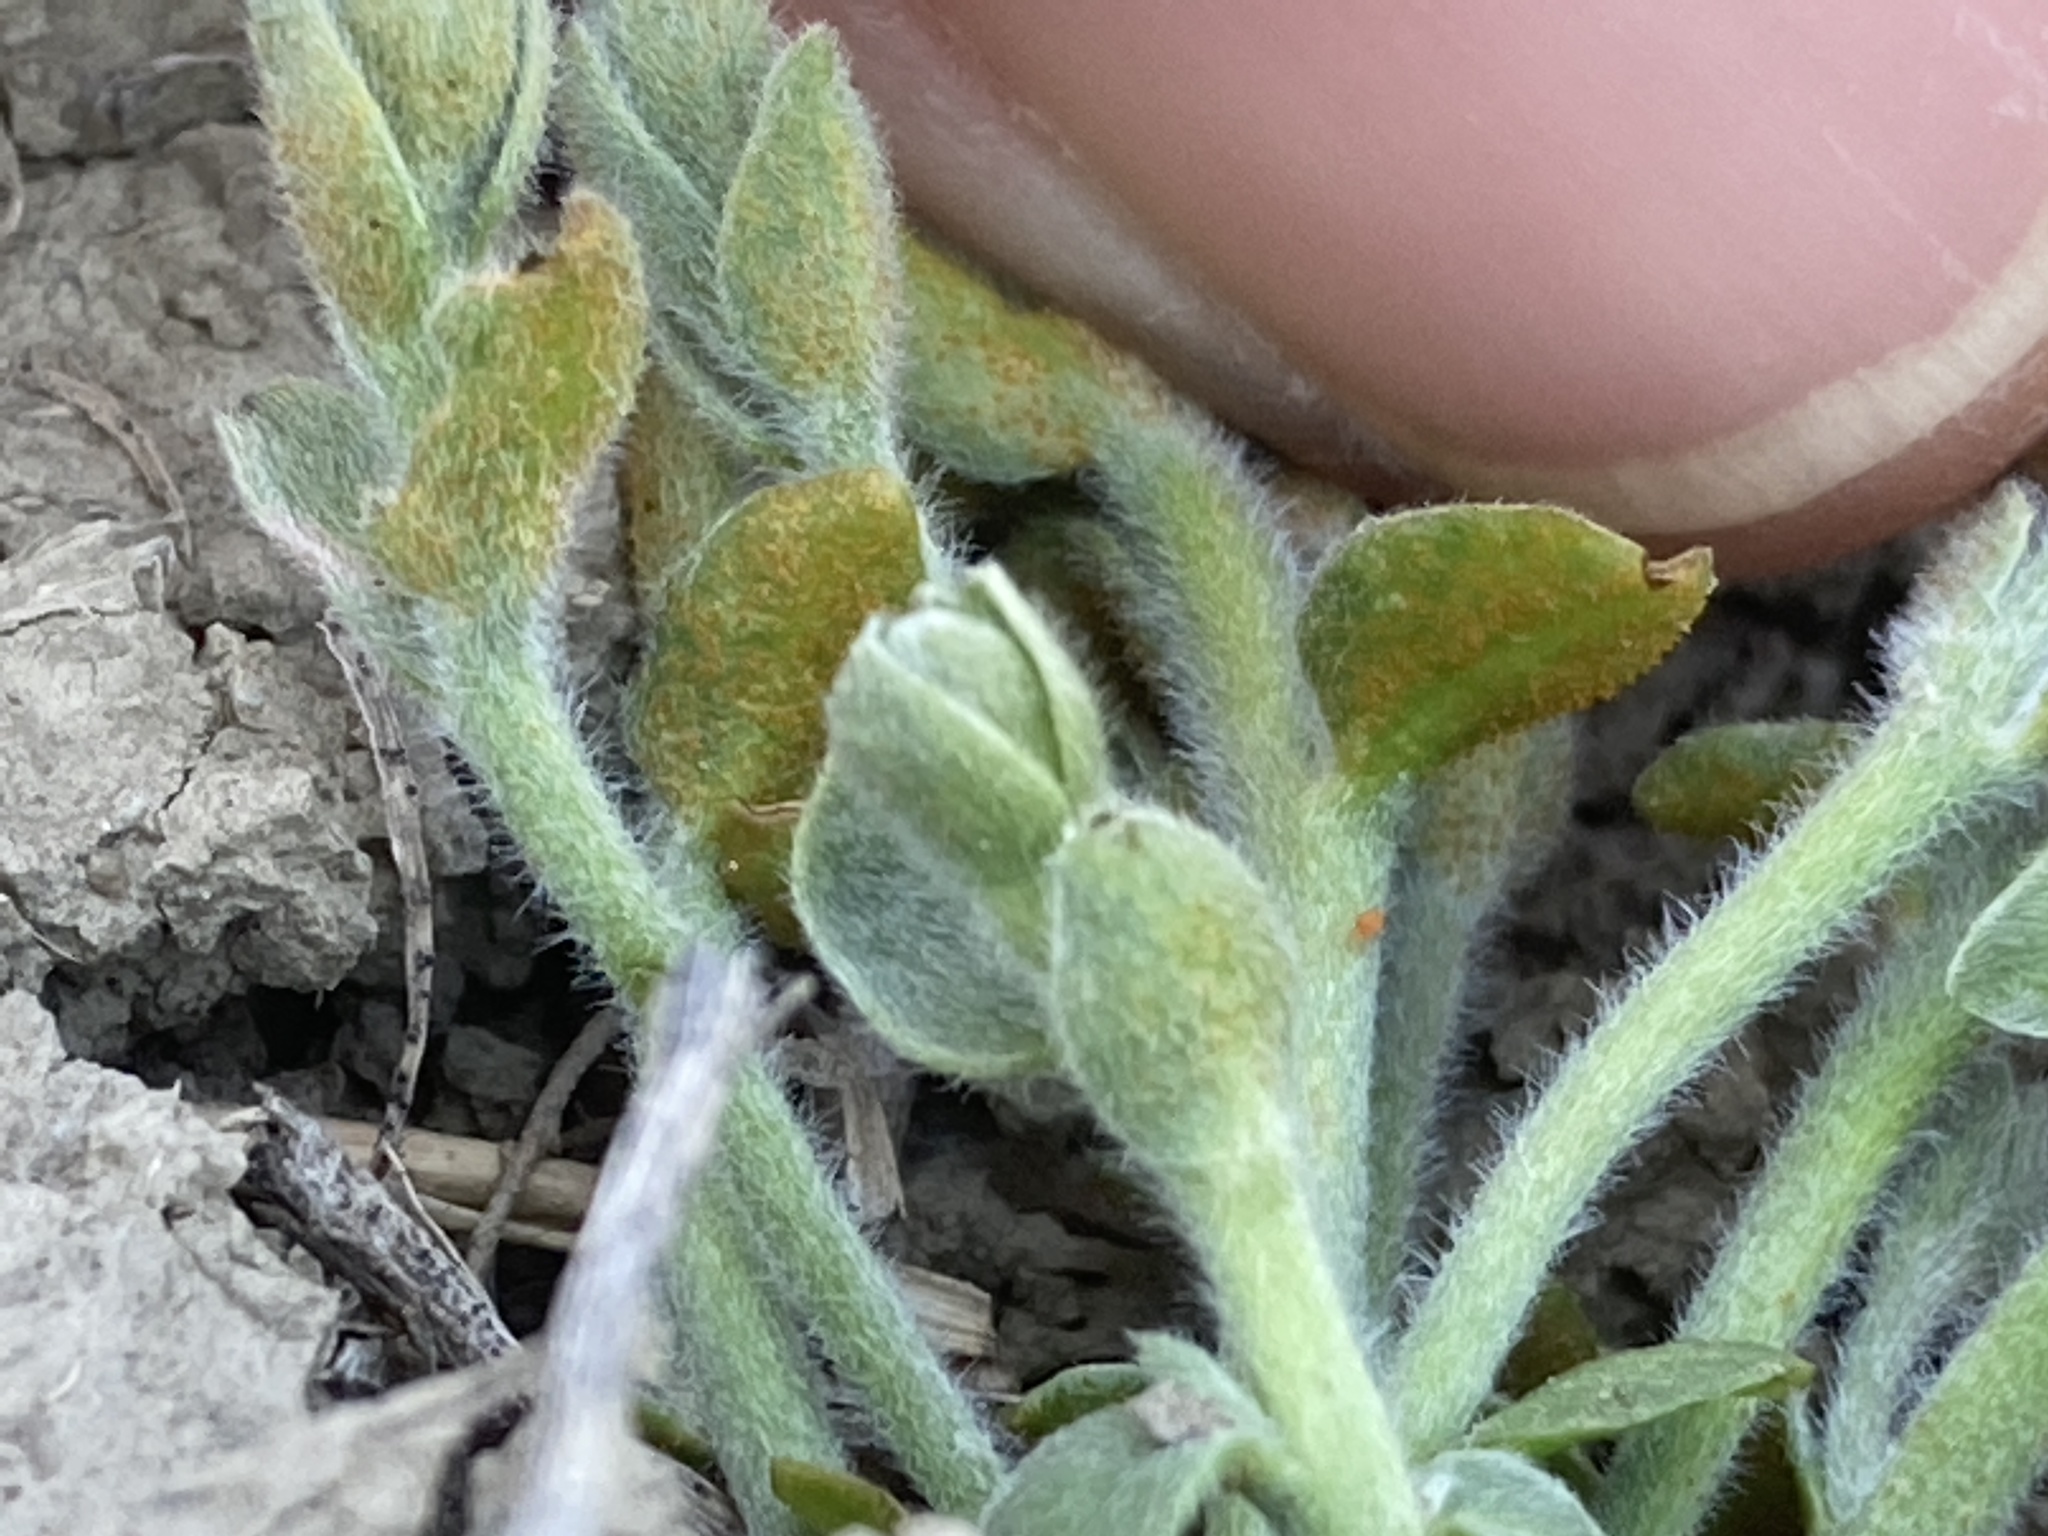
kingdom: Fungi
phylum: Basidiomycota
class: Pucciniomycetes
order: Pucciniales
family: Pucciniaceae
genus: Puccinia
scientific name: Puccinia cressae
